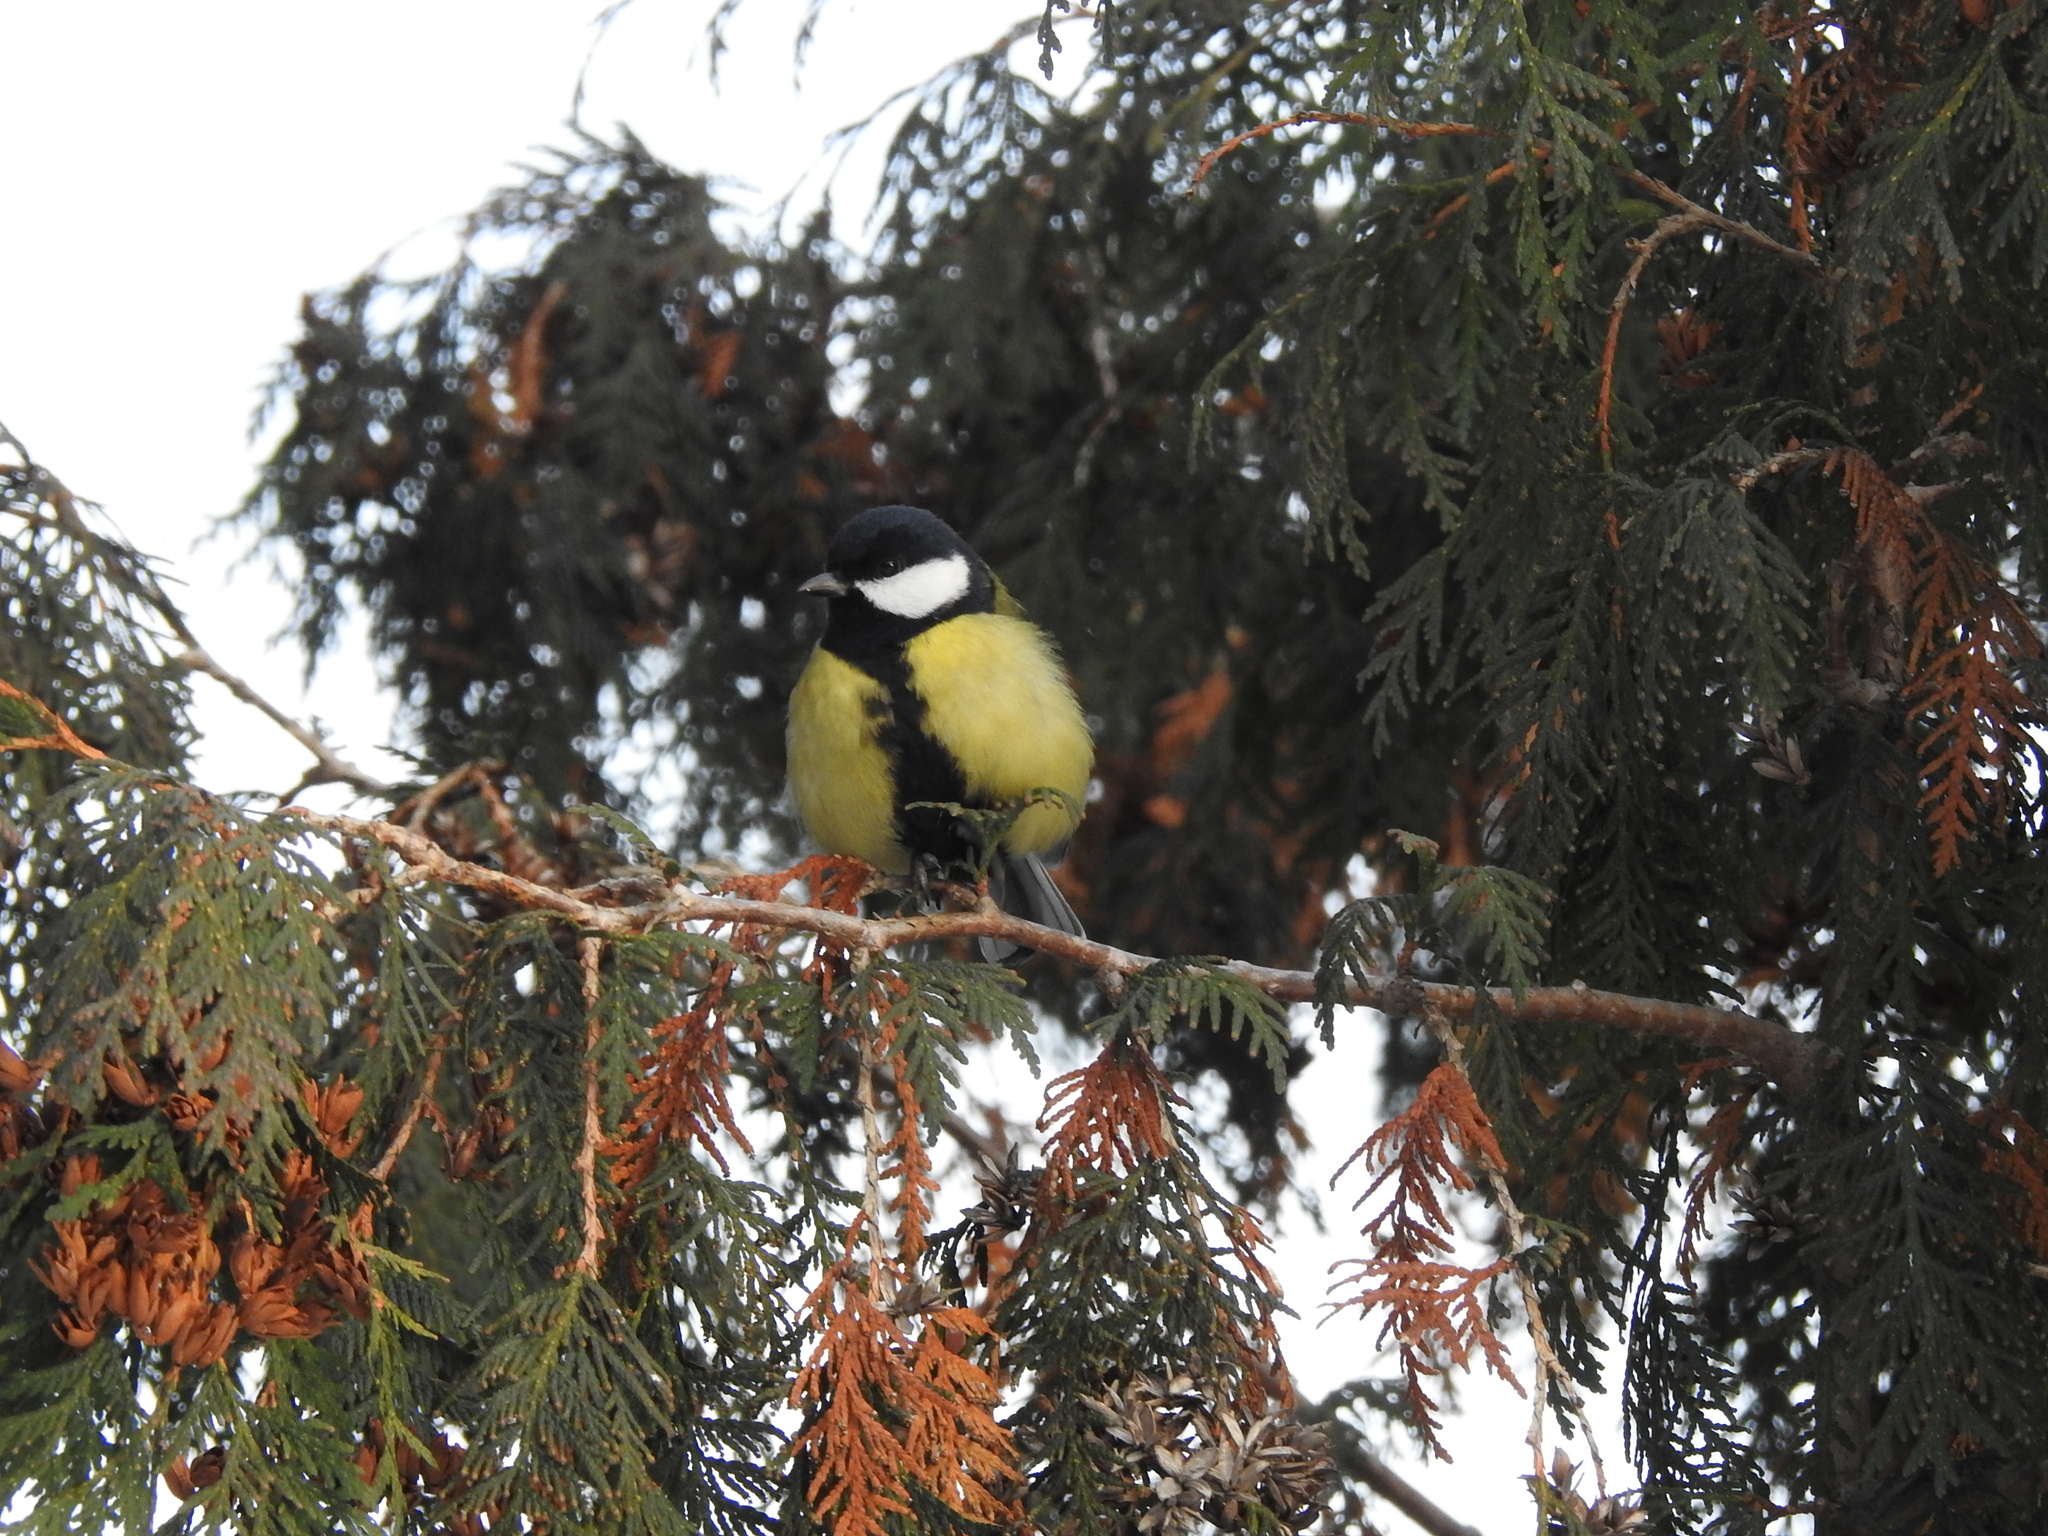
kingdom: Animalia
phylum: Chordata
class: Aves
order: Passeriformes
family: Paridae
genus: Parus
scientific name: Parus major
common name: Great tit
